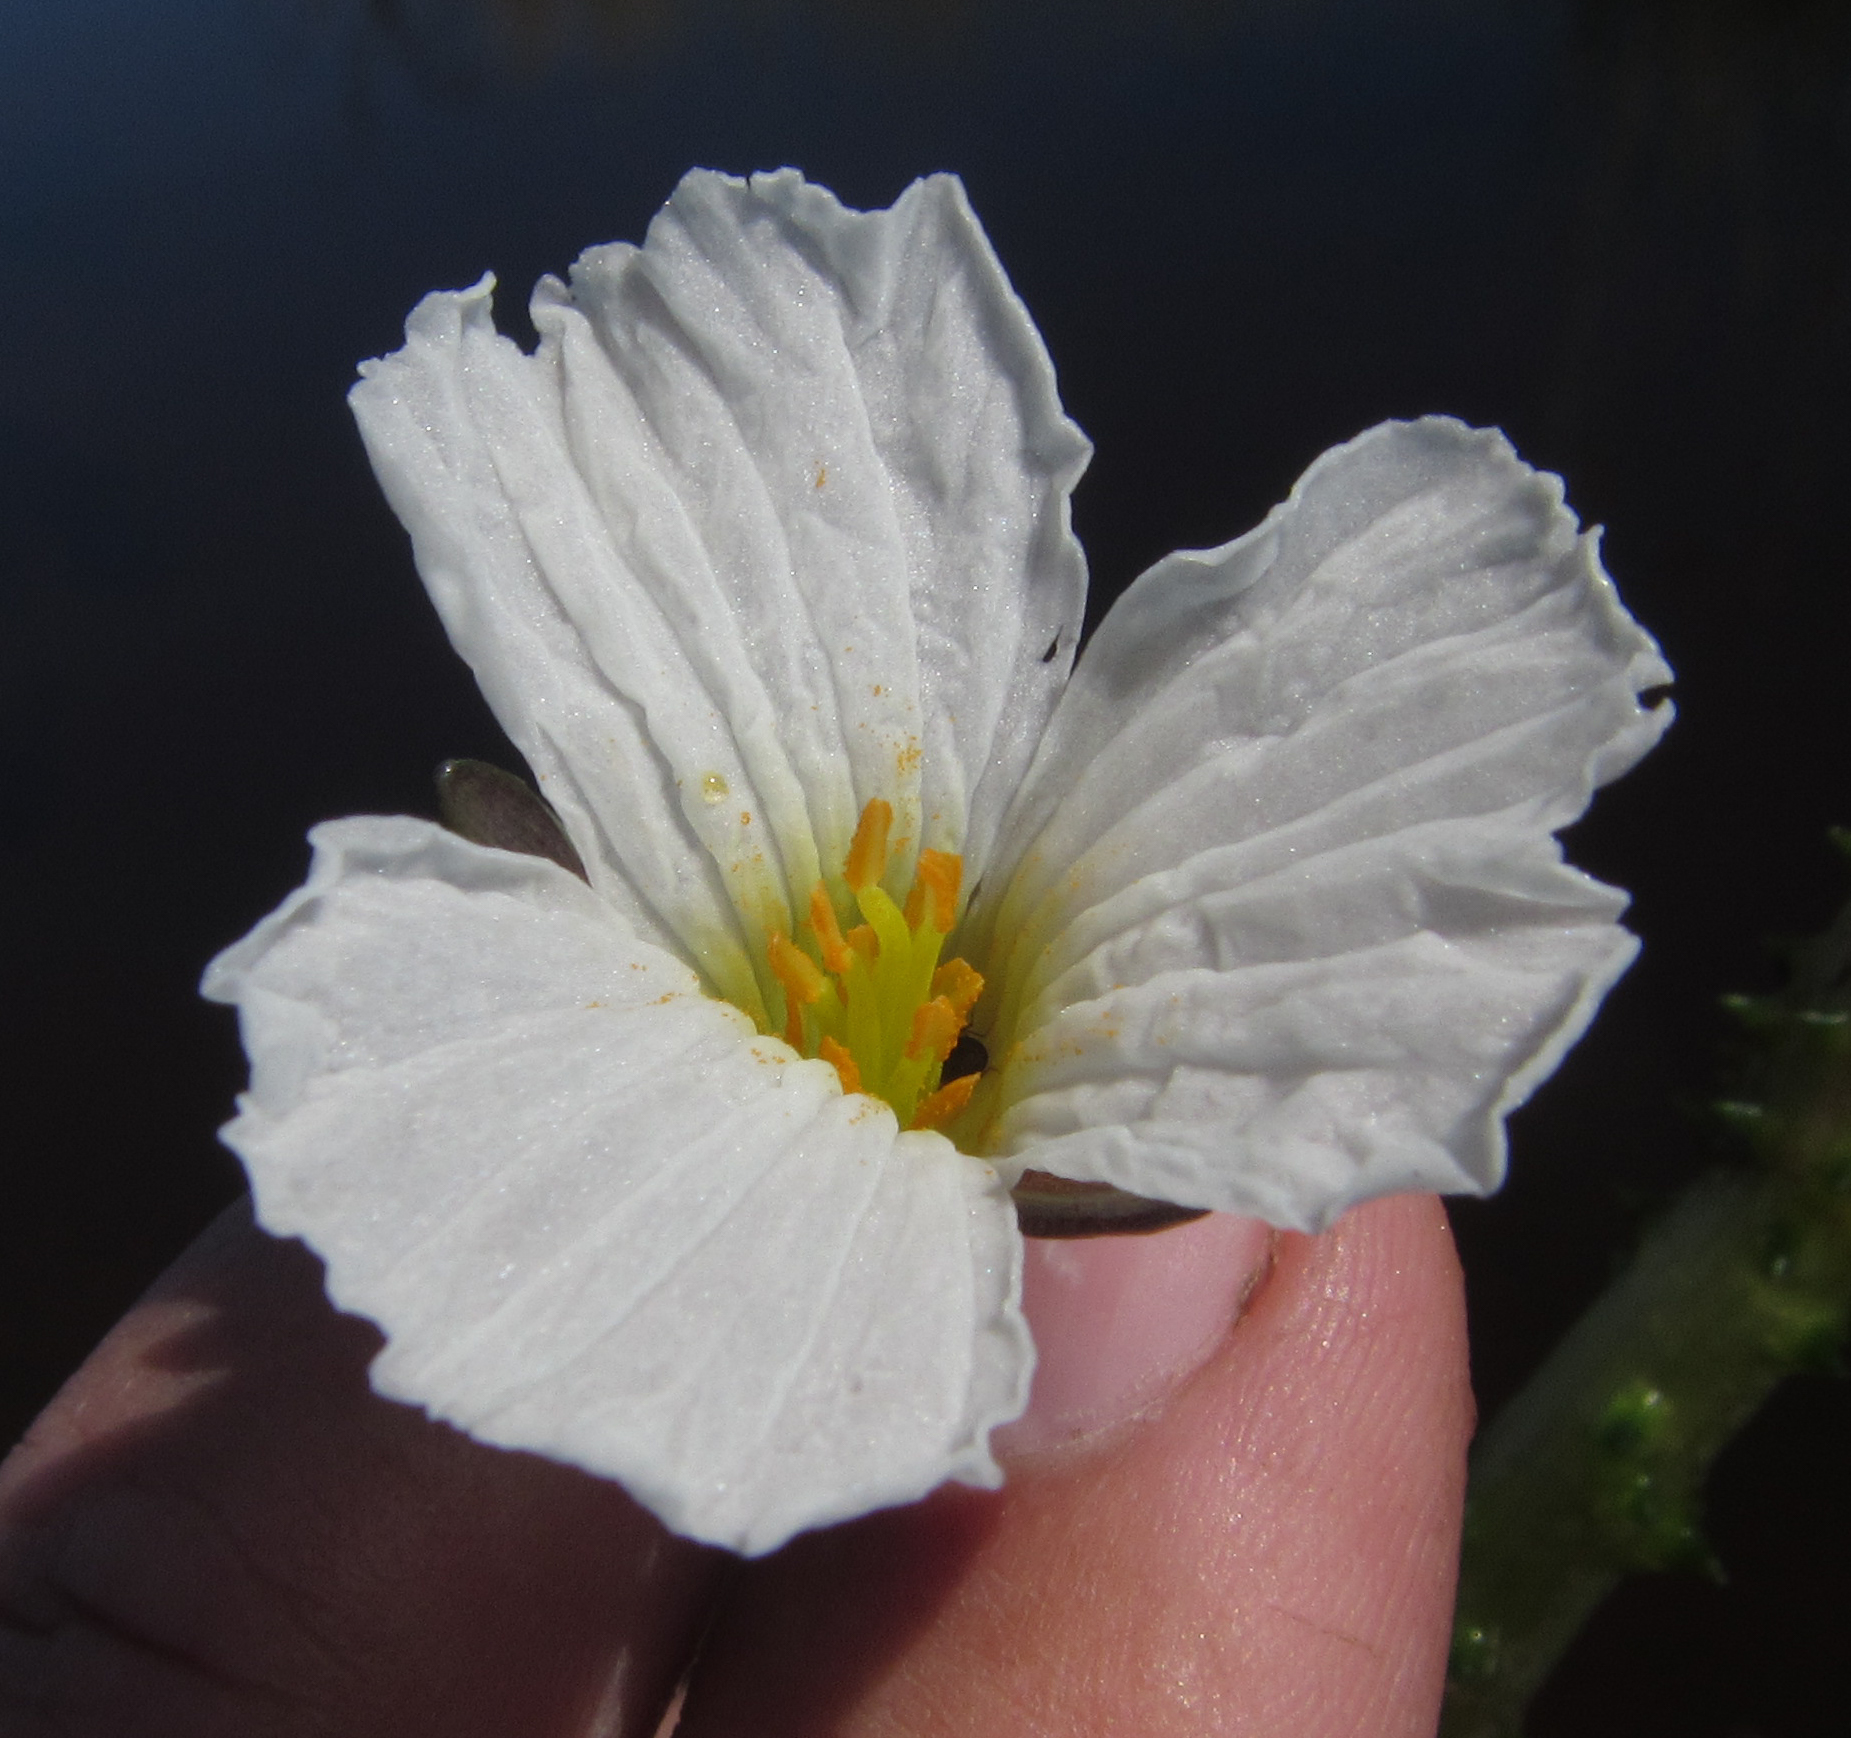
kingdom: Plantae
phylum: Tracheophyta
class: Liliopsida
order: Alismatales
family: Hydrocharitaceae
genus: Ottelia
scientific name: Ottelia muricata
